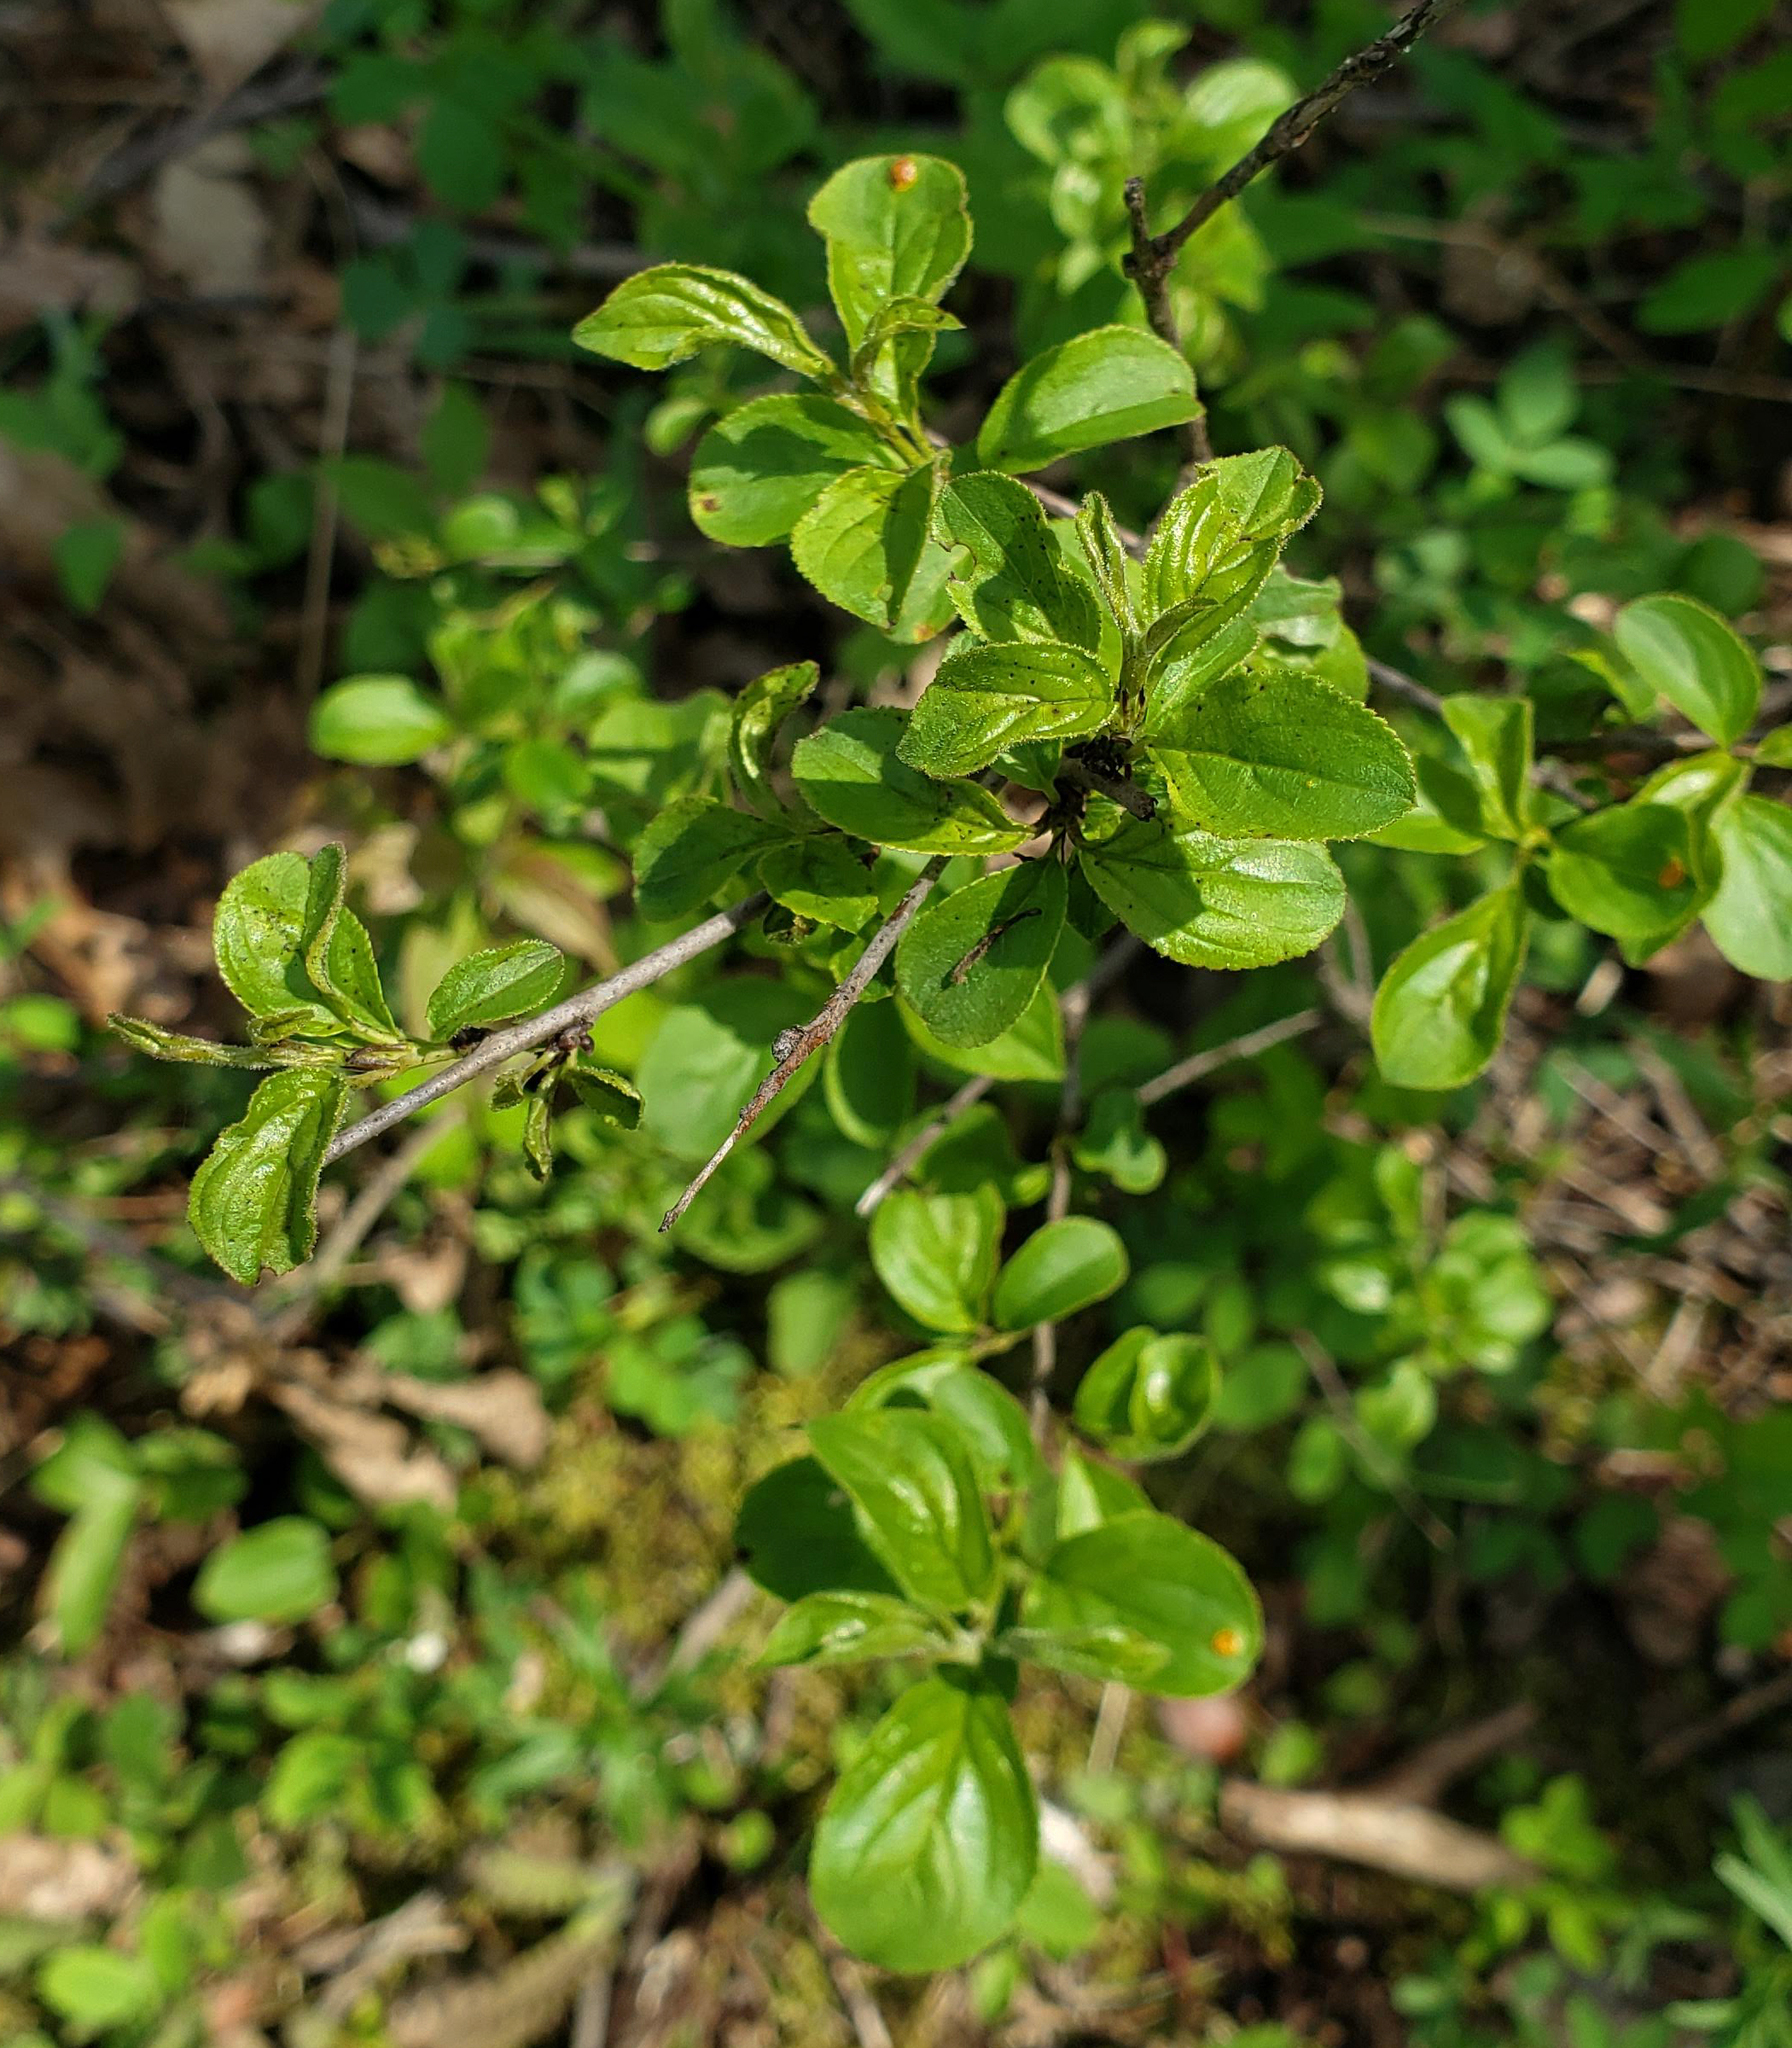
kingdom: Plantae
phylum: Tracheophyta
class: Magnoliopsida
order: Rosales
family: Rhamnaceae
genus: Rhamnus
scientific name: Rhamnus cathartica
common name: Common buckthorn
